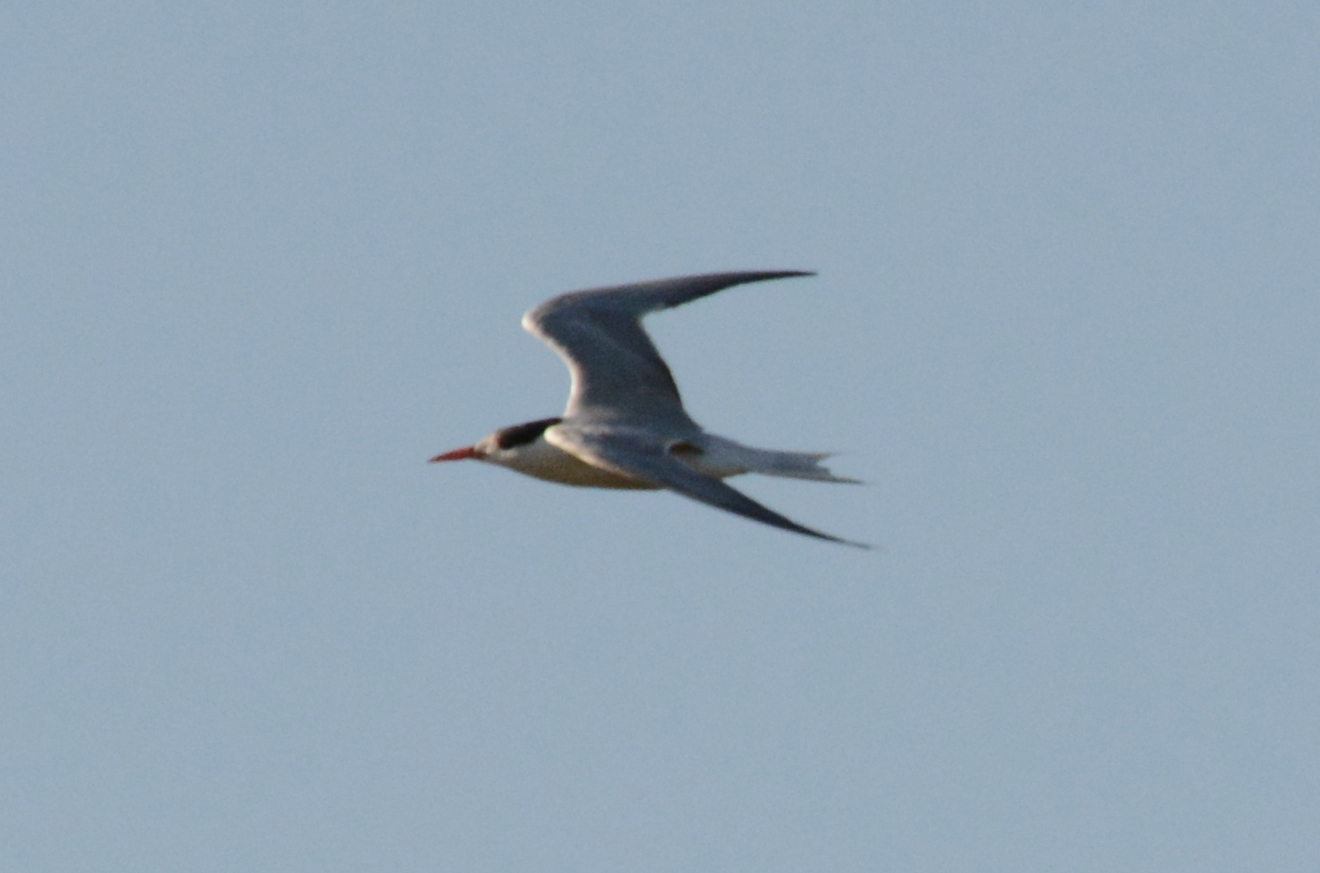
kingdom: Animalia
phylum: Chordata
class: Aves
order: Charadriiformes
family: Laridae
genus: Sterna
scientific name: Sterna hirundo
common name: Common tern
